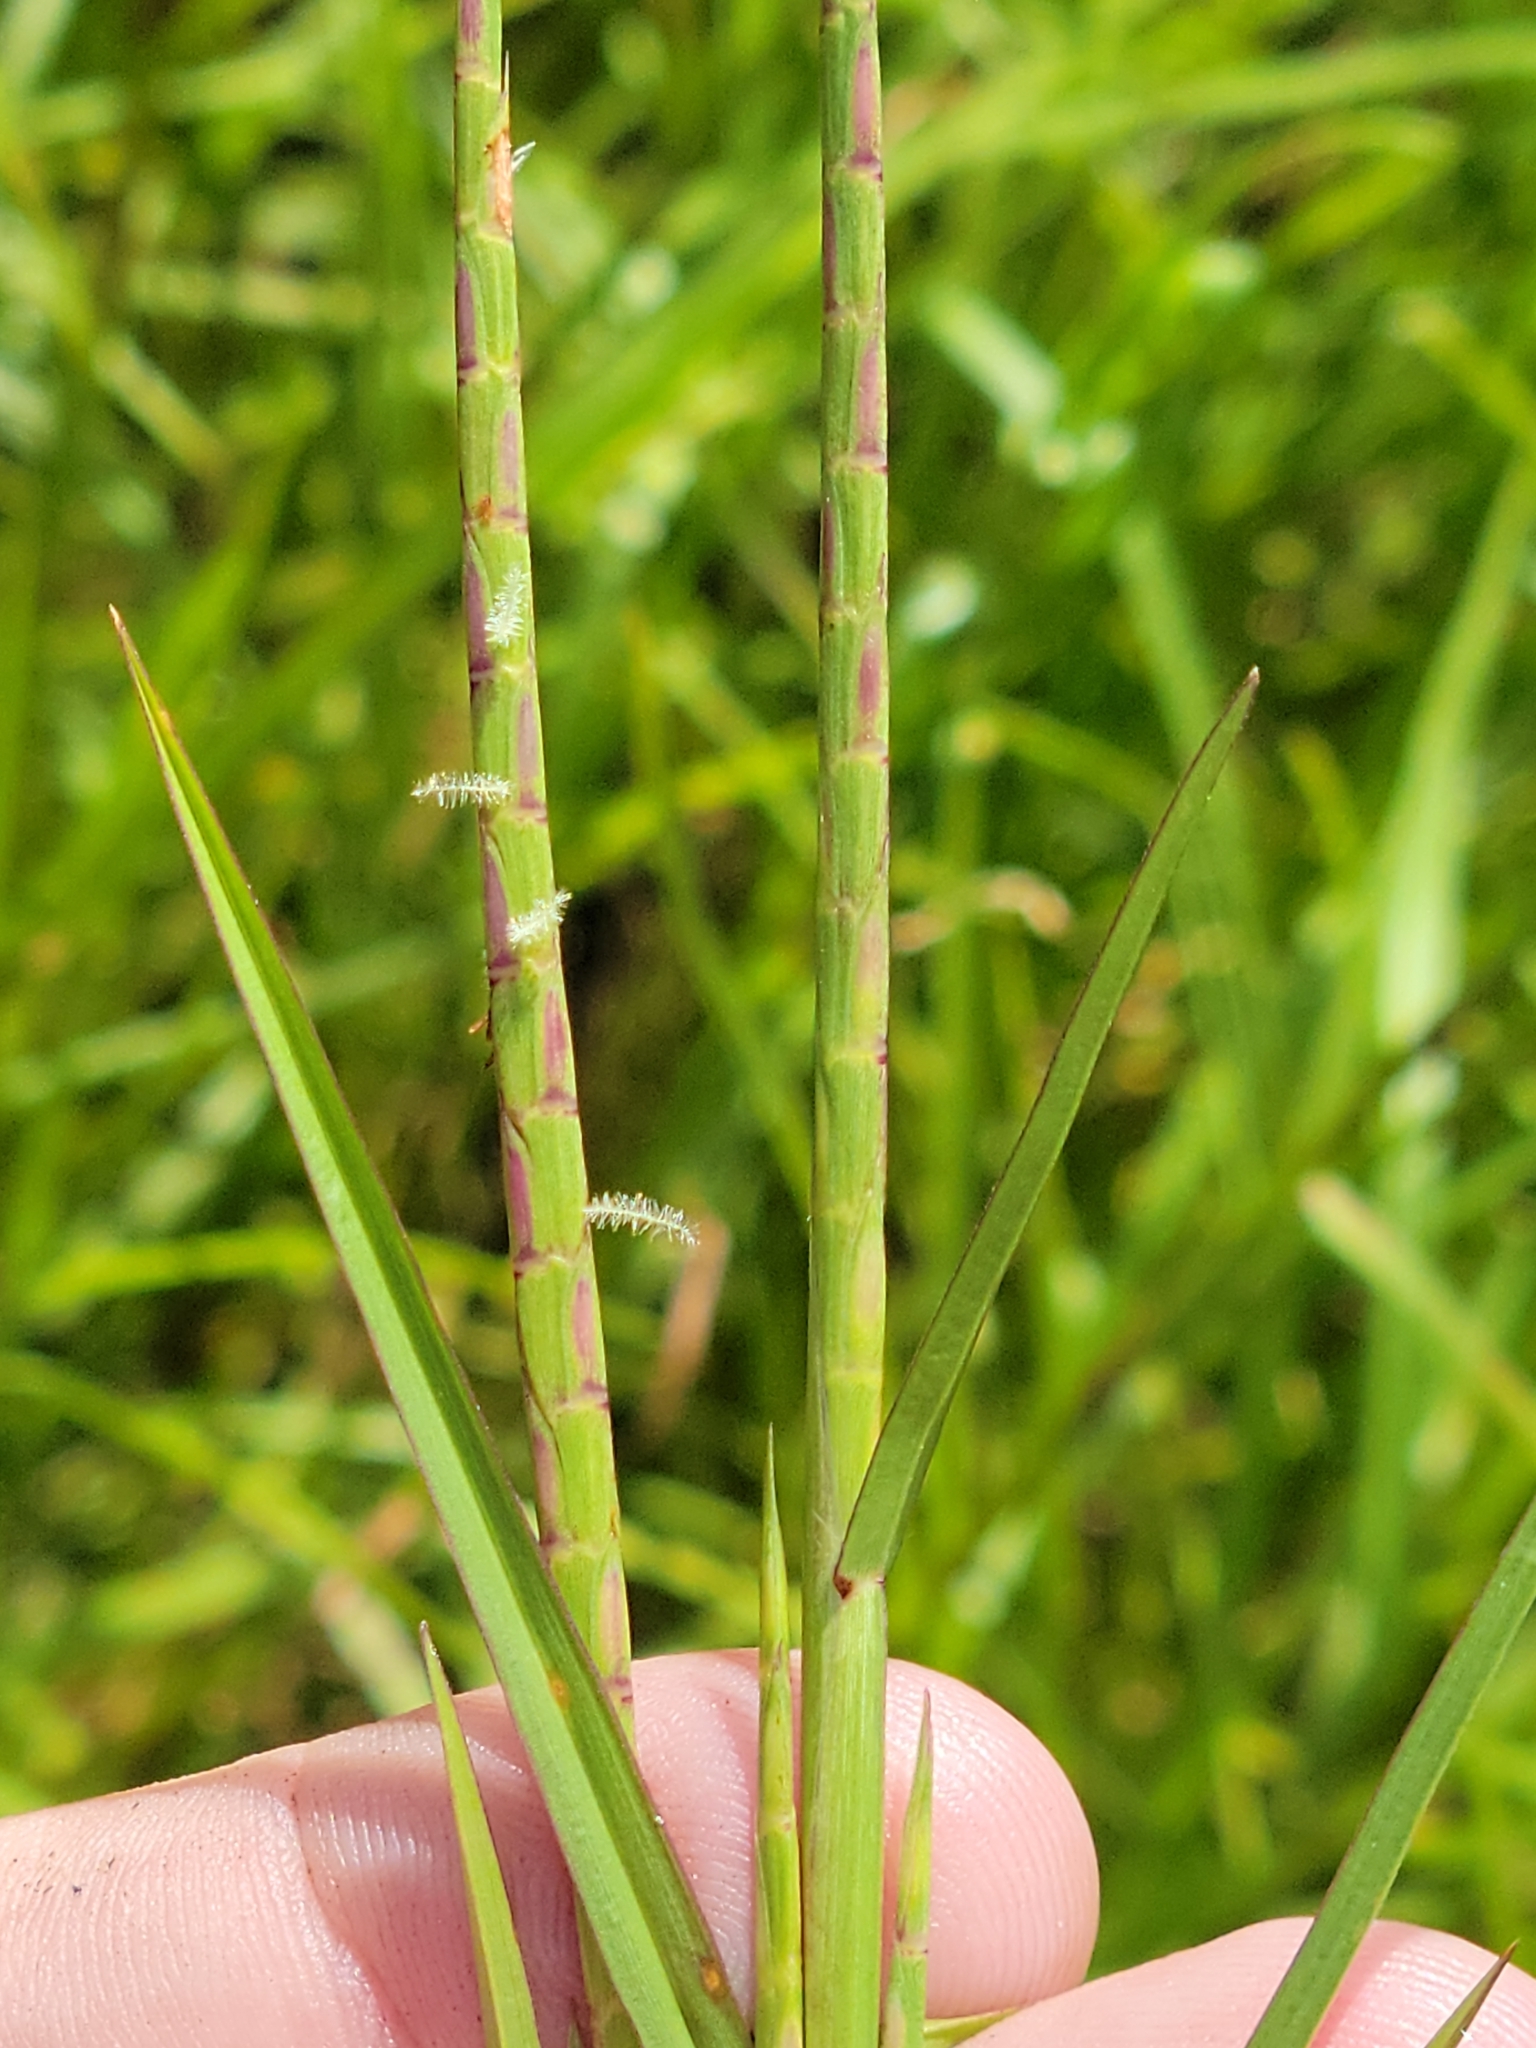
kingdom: Plantae
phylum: Tracheophyta
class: Liliopsida
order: Poales
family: Poaceae
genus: Hemarthria
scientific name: Hemarthria altissima
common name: African jointgrass
